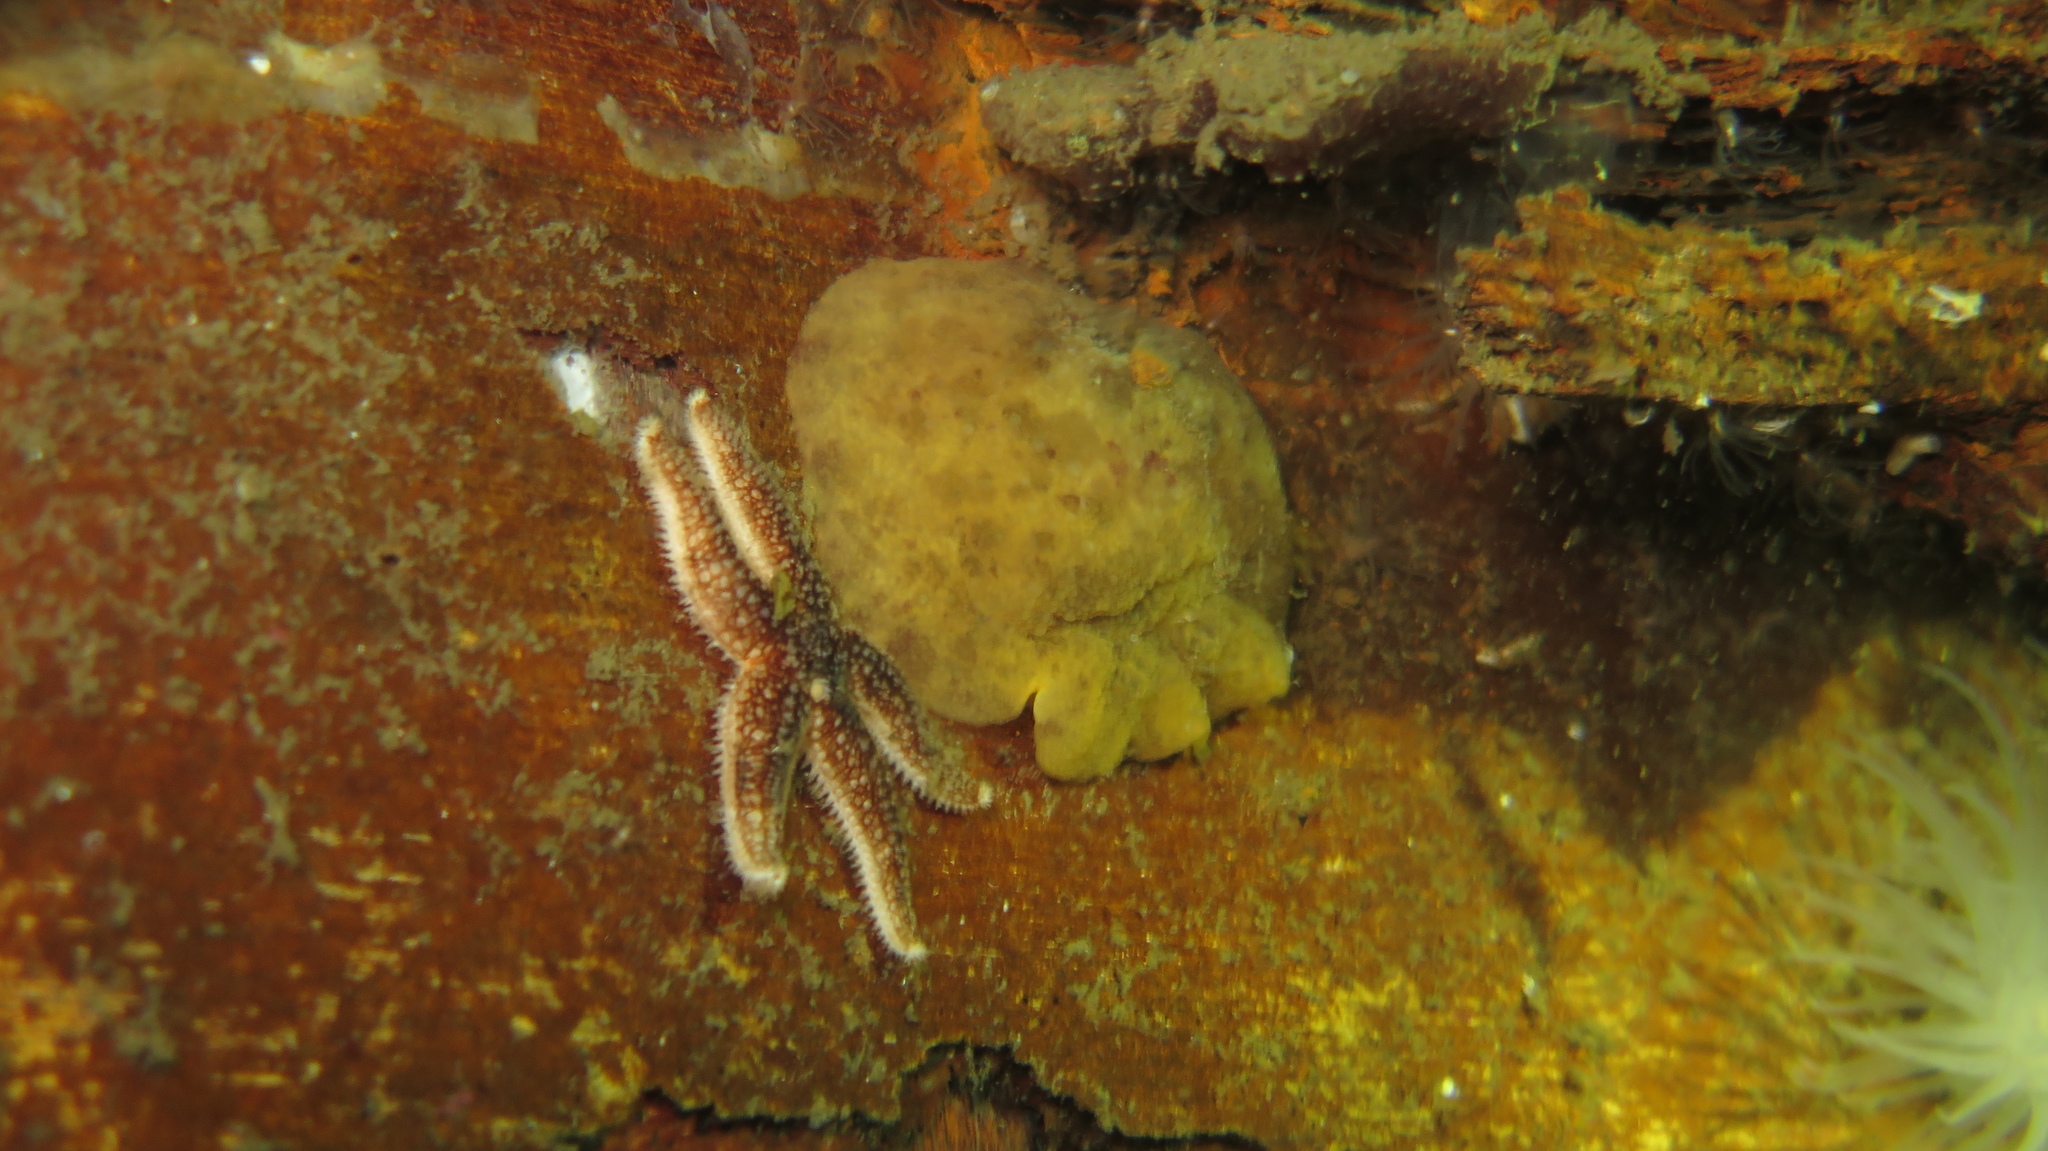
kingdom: Animalia
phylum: Mollusca
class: Gastropoda
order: Nudibranchia
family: Dorididae
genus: Doris
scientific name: Doris pseudoargus
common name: Sea lemon
